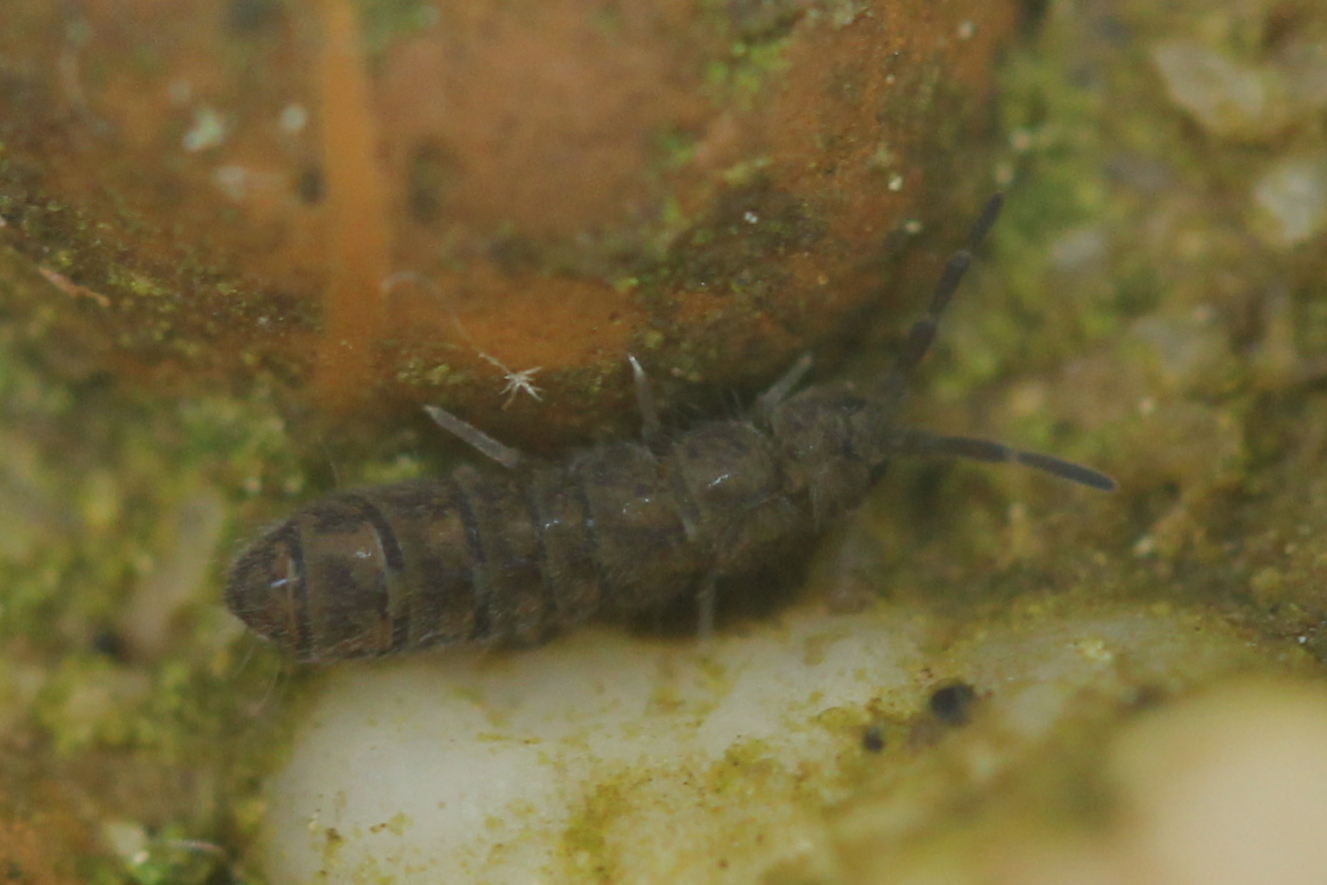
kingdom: Animalia
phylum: Arthropoda
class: Collembola
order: Entomobryomorpha
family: Isotomidae
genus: Isotoma
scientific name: Isotoma delta
